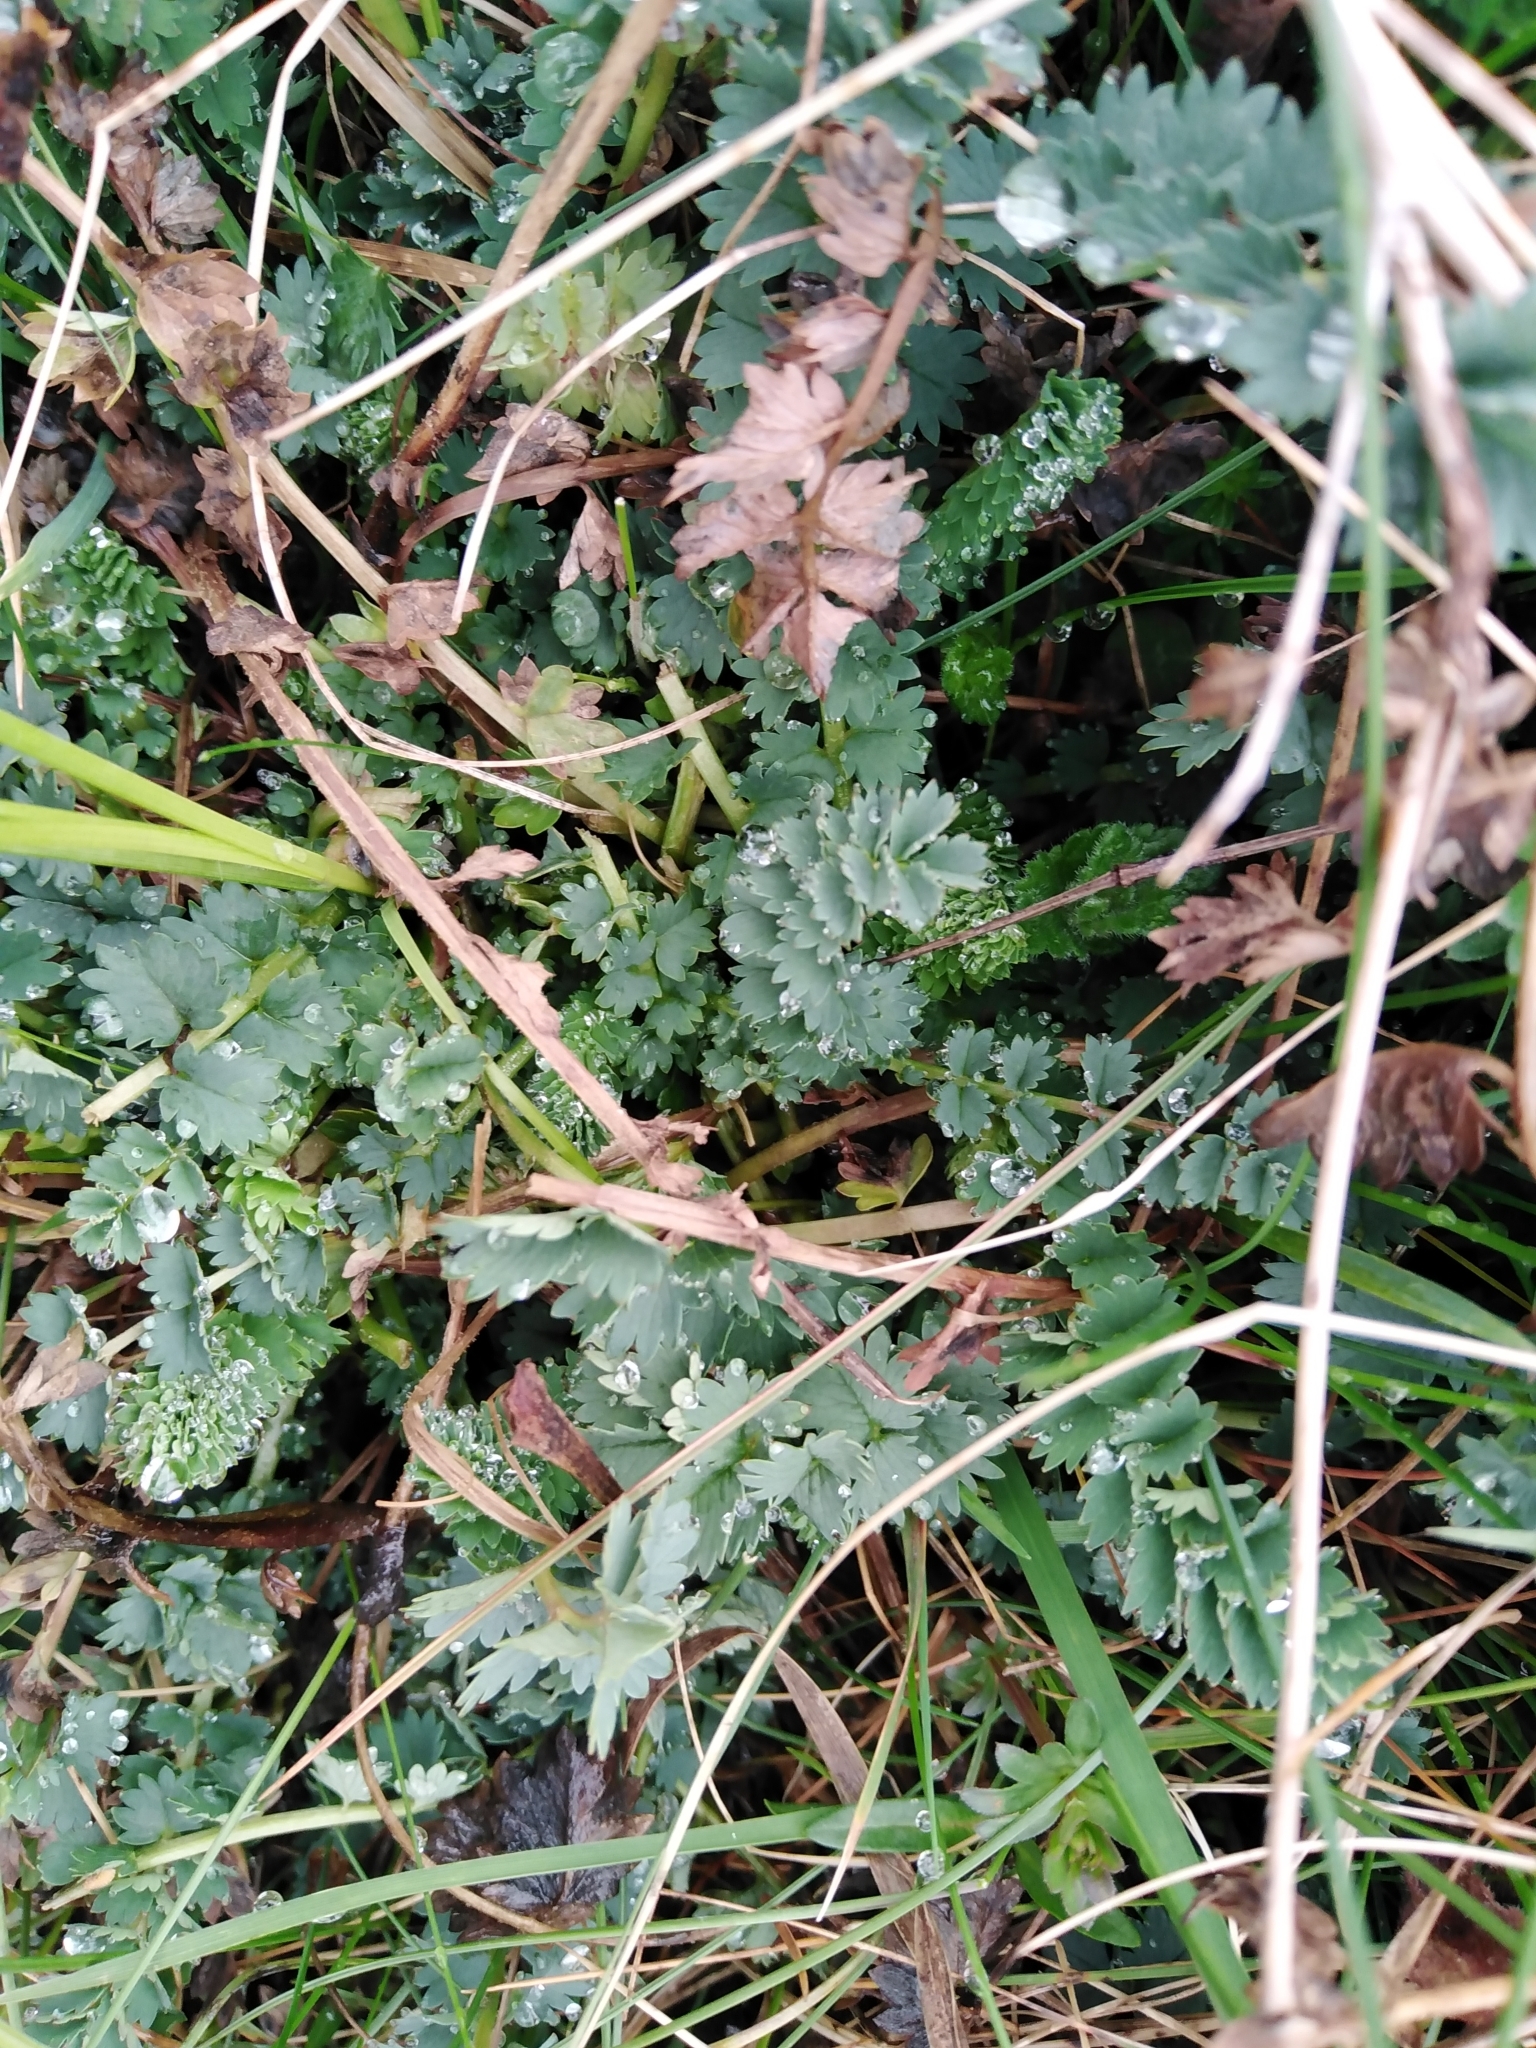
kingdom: Plantae
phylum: Tracheophyta
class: Magnoliopsida
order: Rosales
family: Rosaceae
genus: Poterium
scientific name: Poterium sanguisorba
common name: Salad burnet
